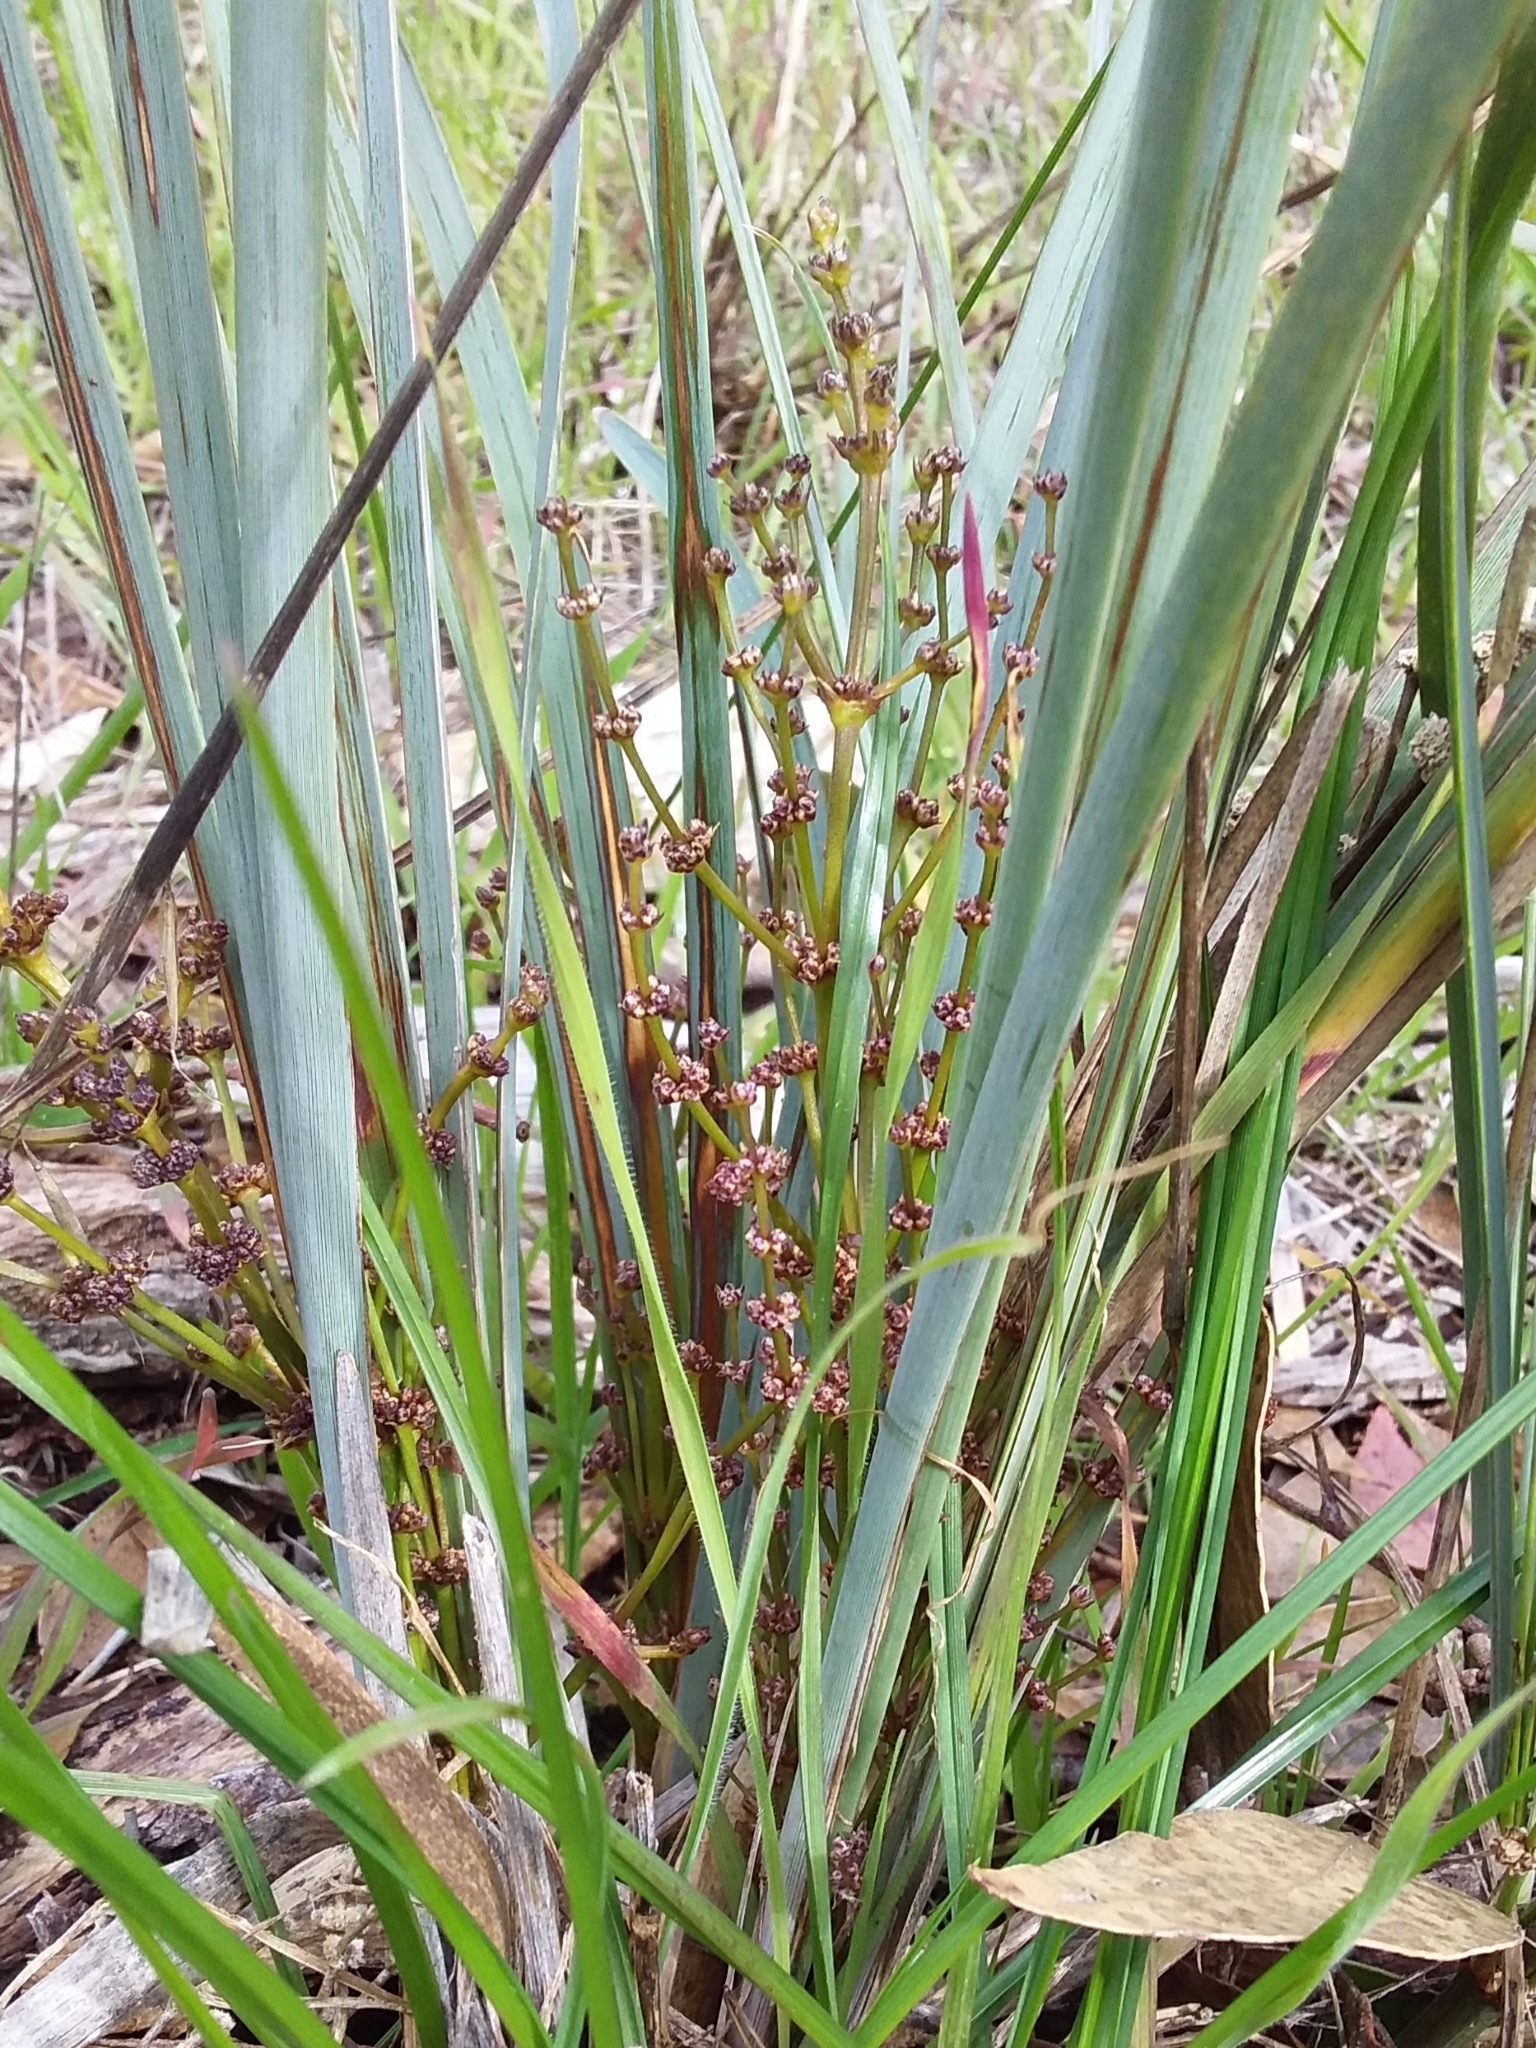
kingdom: Plantae
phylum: Tracheophyta
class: Liliopsida
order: Asparagales
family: Asparagaceae
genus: Lomandra
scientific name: Lomandra multiflora
